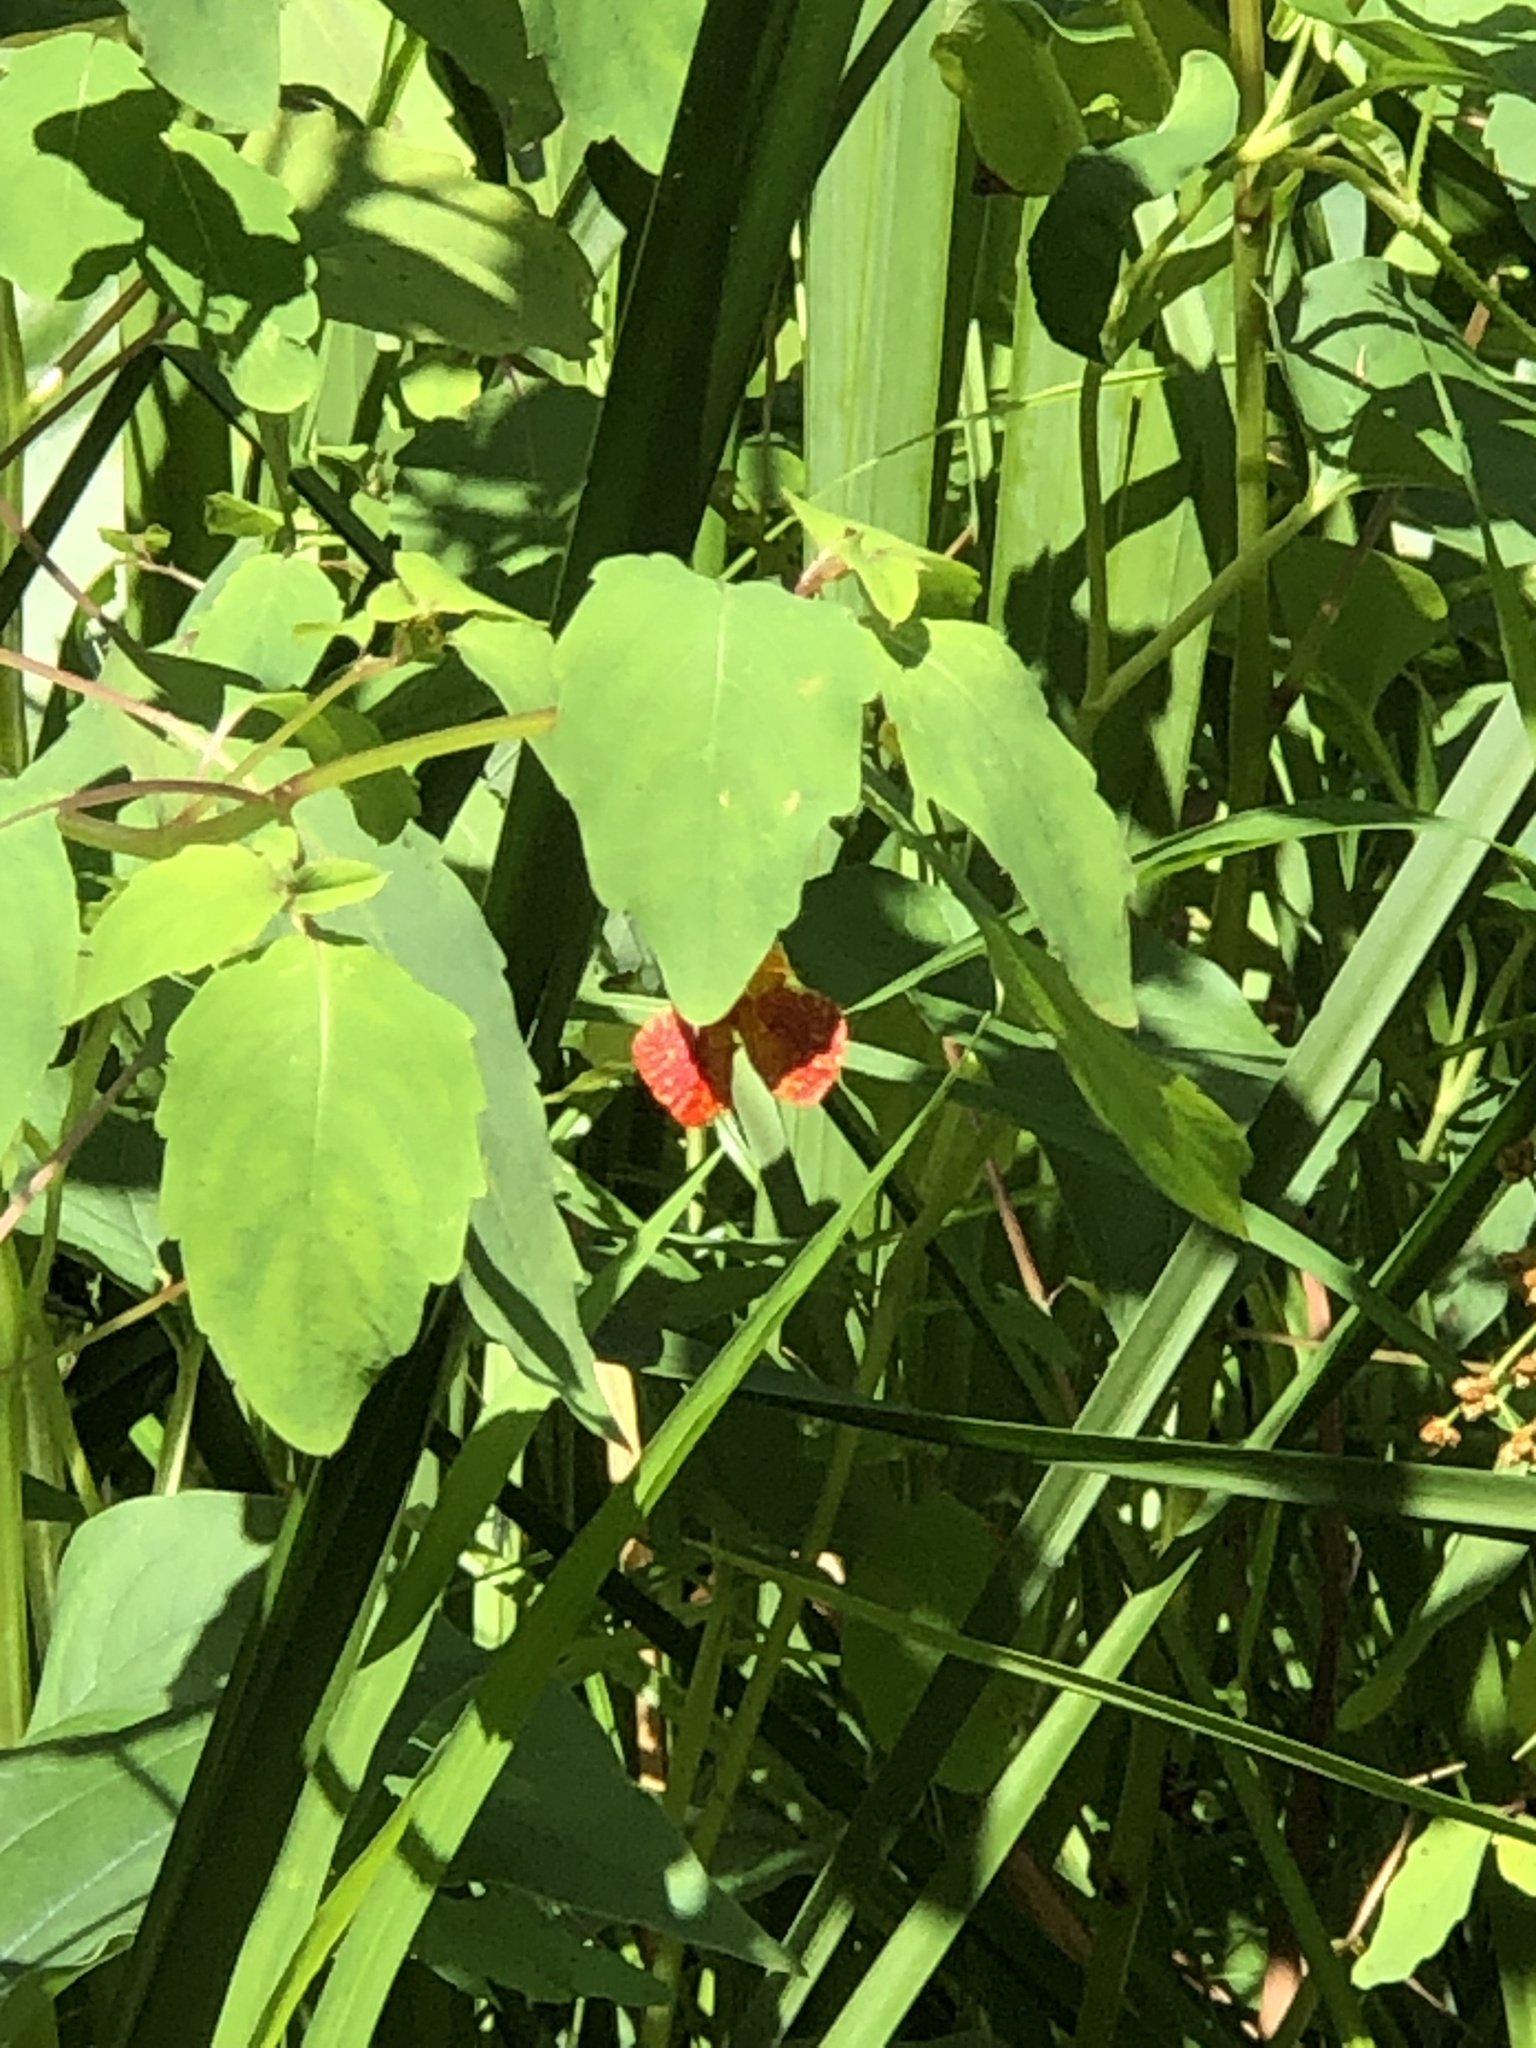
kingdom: Plantae
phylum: Tracheophyta
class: Magnoliopsida
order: Ericales
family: Balsaminaceae
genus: Impatiens
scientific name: Impatiens capensis
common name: Orange balsam
